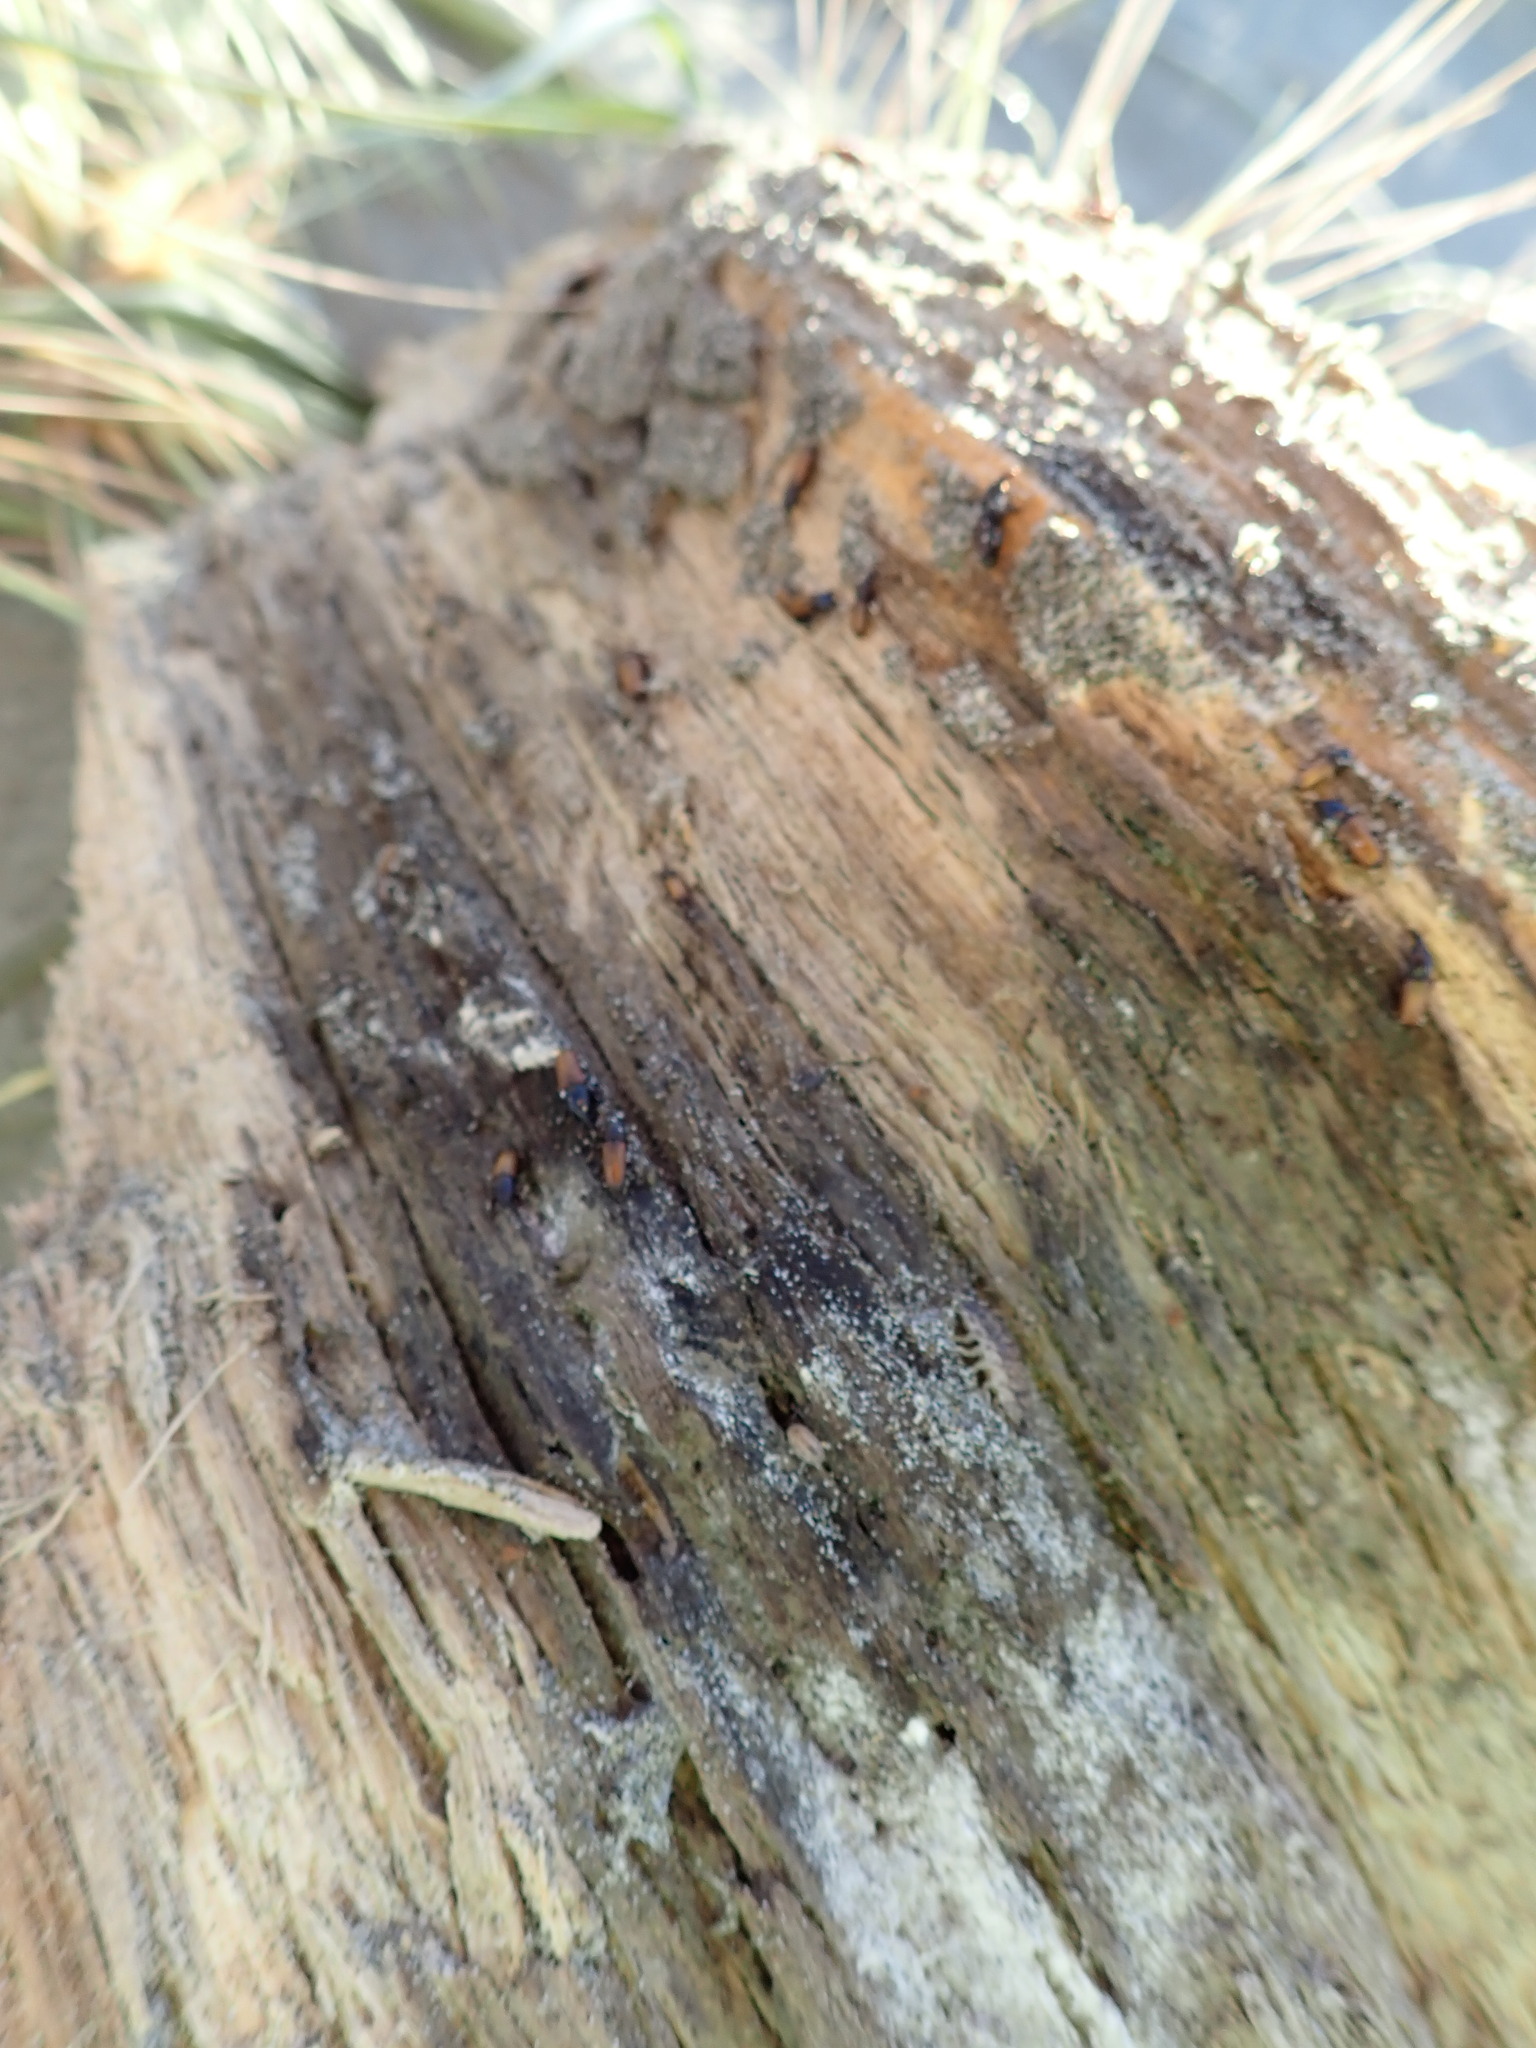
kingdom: Animalia
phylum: Arthropoda
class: Insecta
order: Coleoptera
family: Curculionidae
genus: Mesites
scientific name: Mesites pallidipennis
